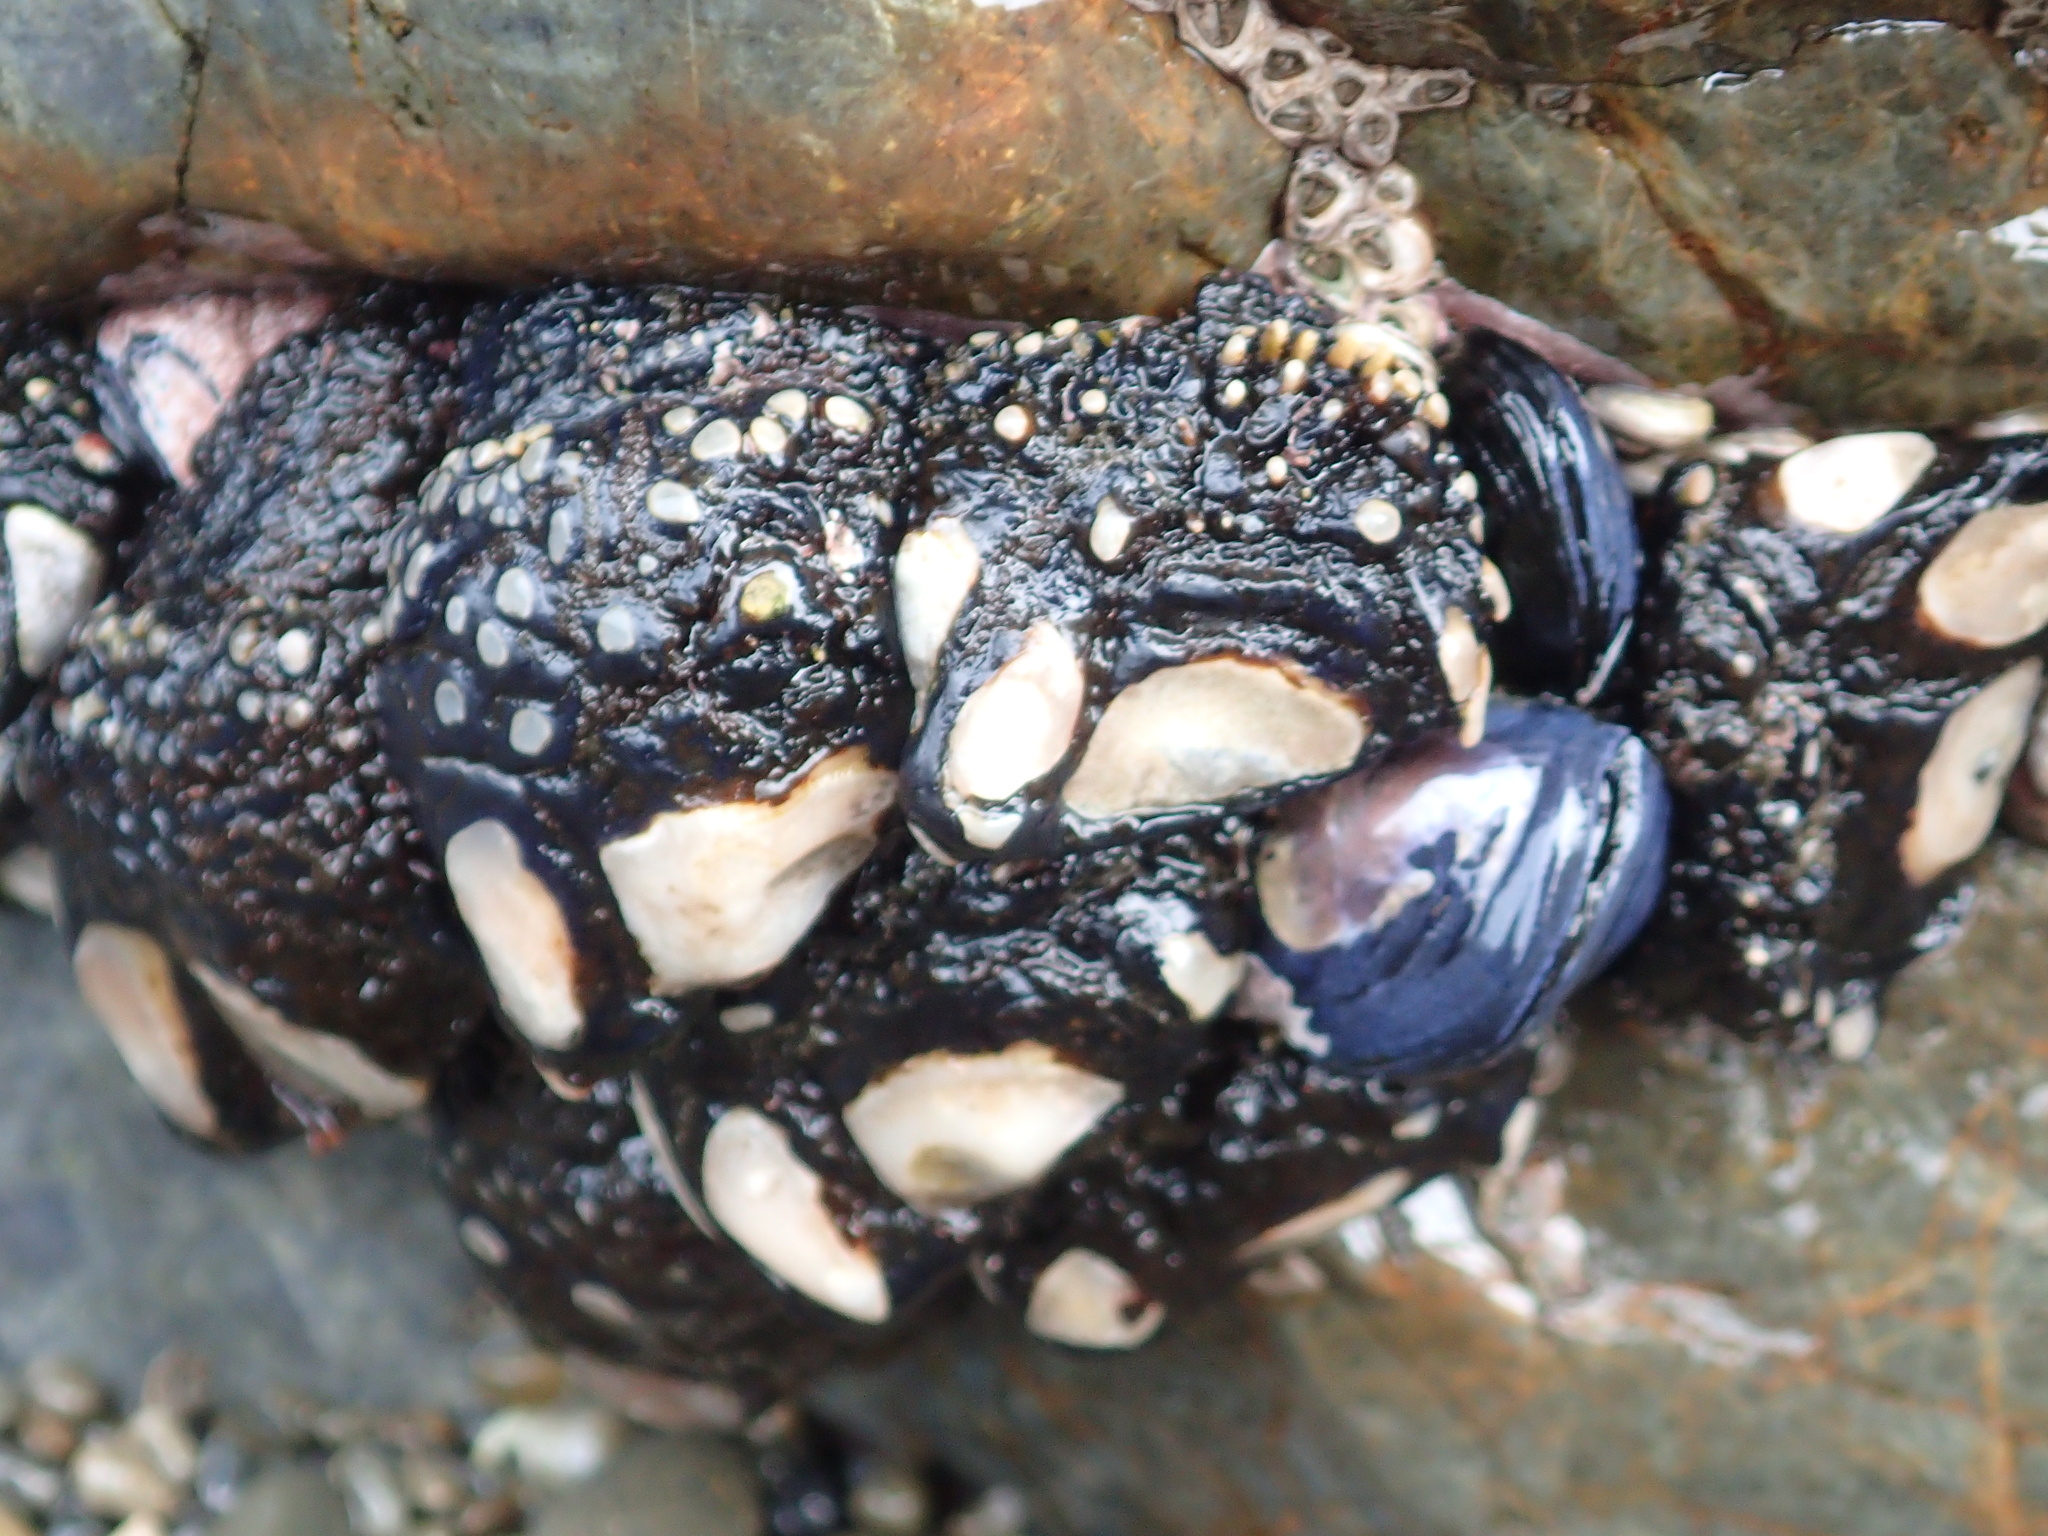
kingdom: Animalia
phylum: Arthropoda
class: Maxillopoda
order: Pedunculata
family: Calanticidae
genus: Calantica
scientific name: Calantica spinosa
